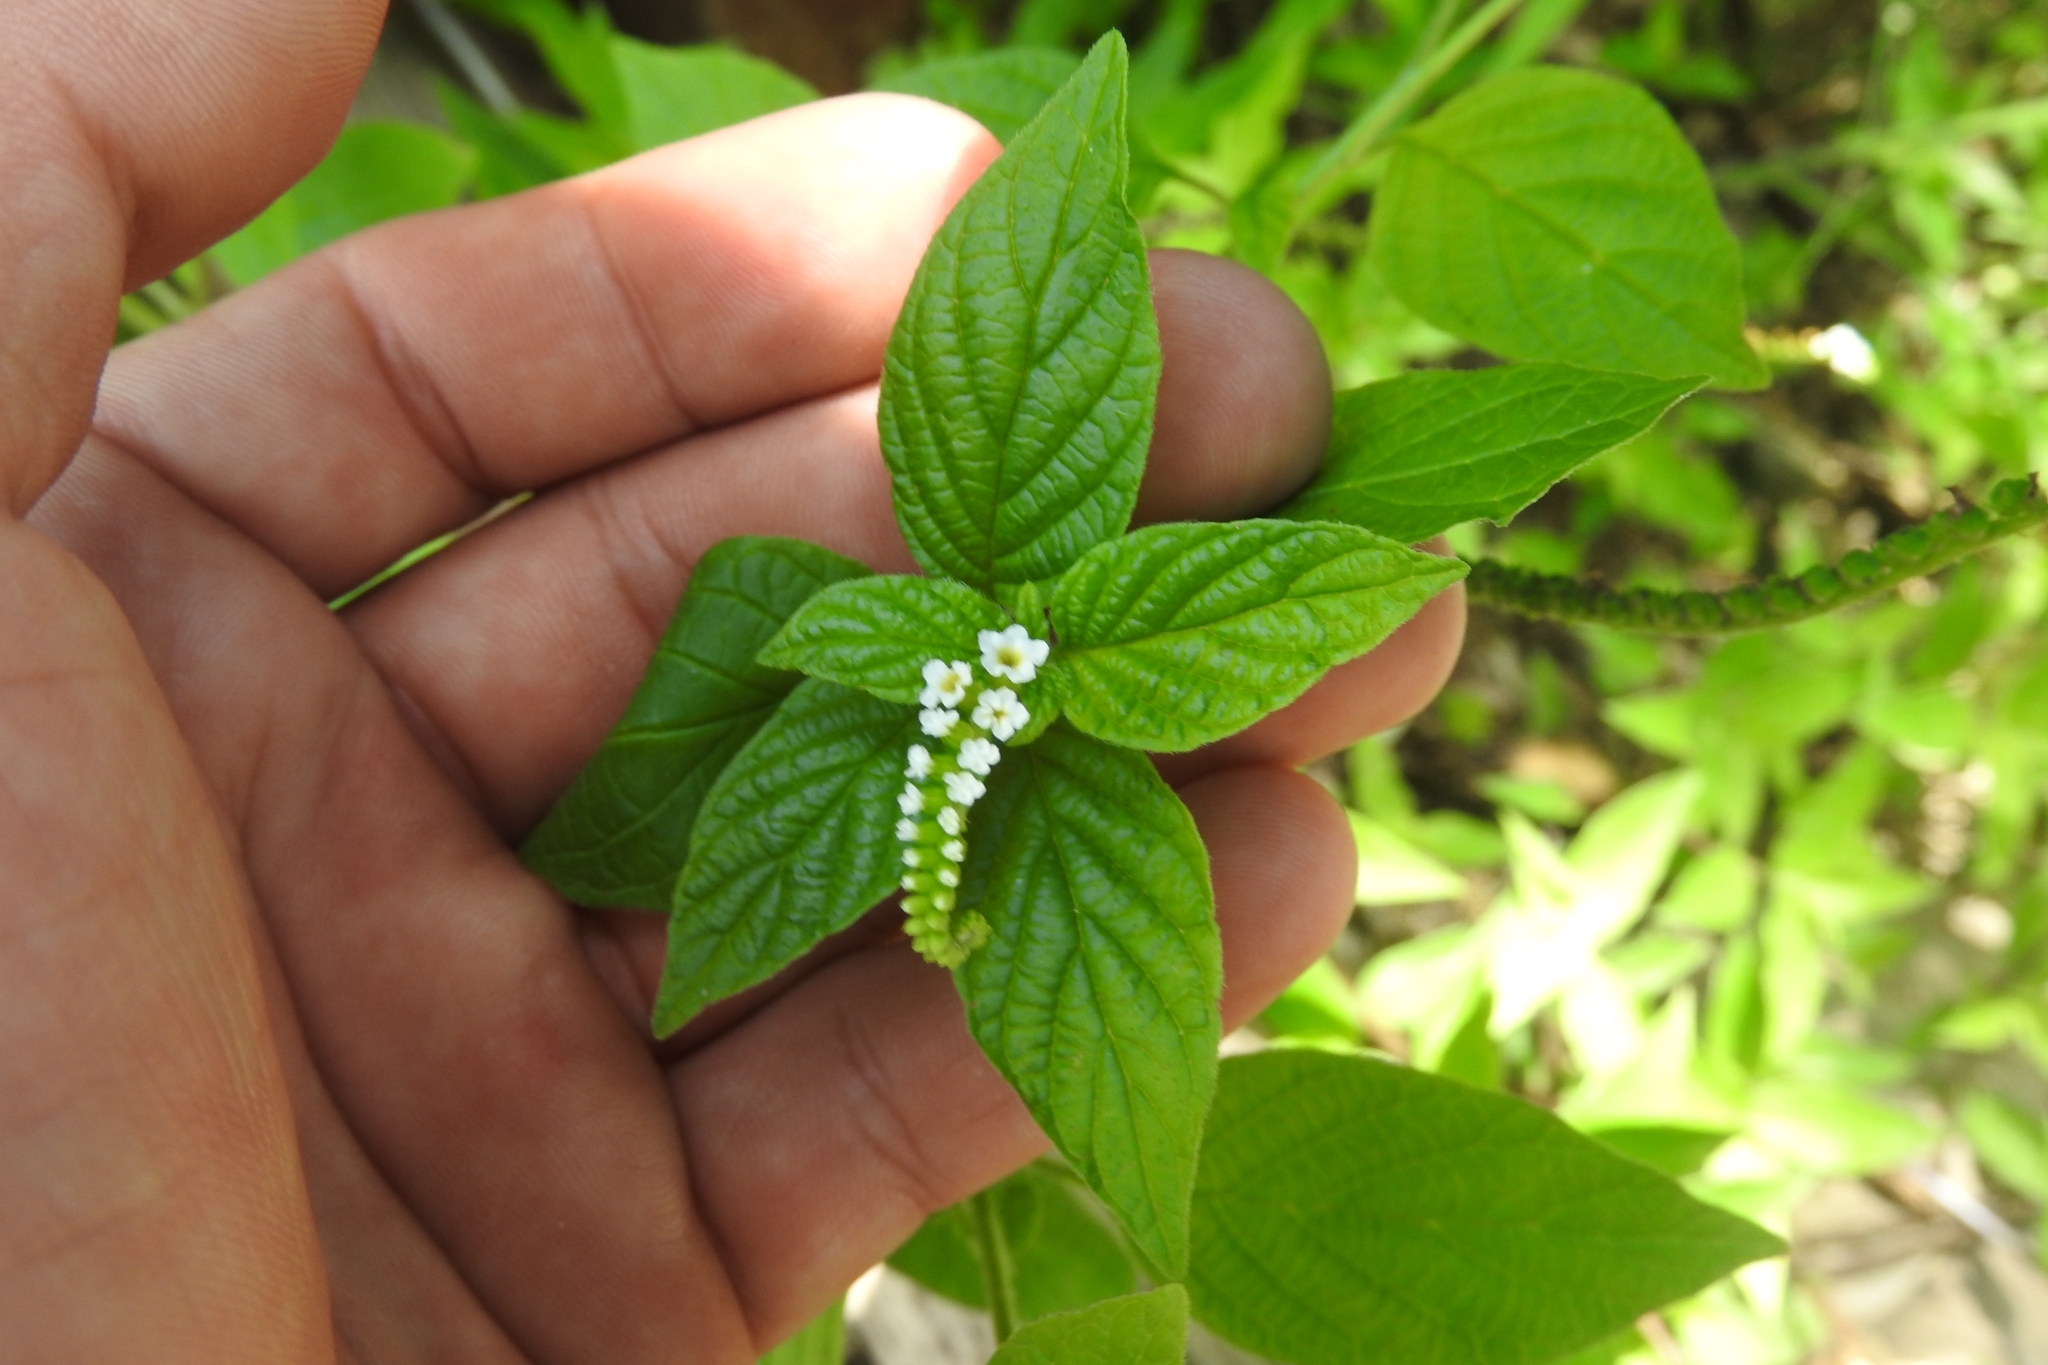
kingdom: Plantae
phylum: Tracheophyta
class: Magnoliopsida
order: Boraginales
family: Heliotropiaceae
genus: Heliotropium
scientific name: Heliotropium angiospermum
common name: Eye bright
